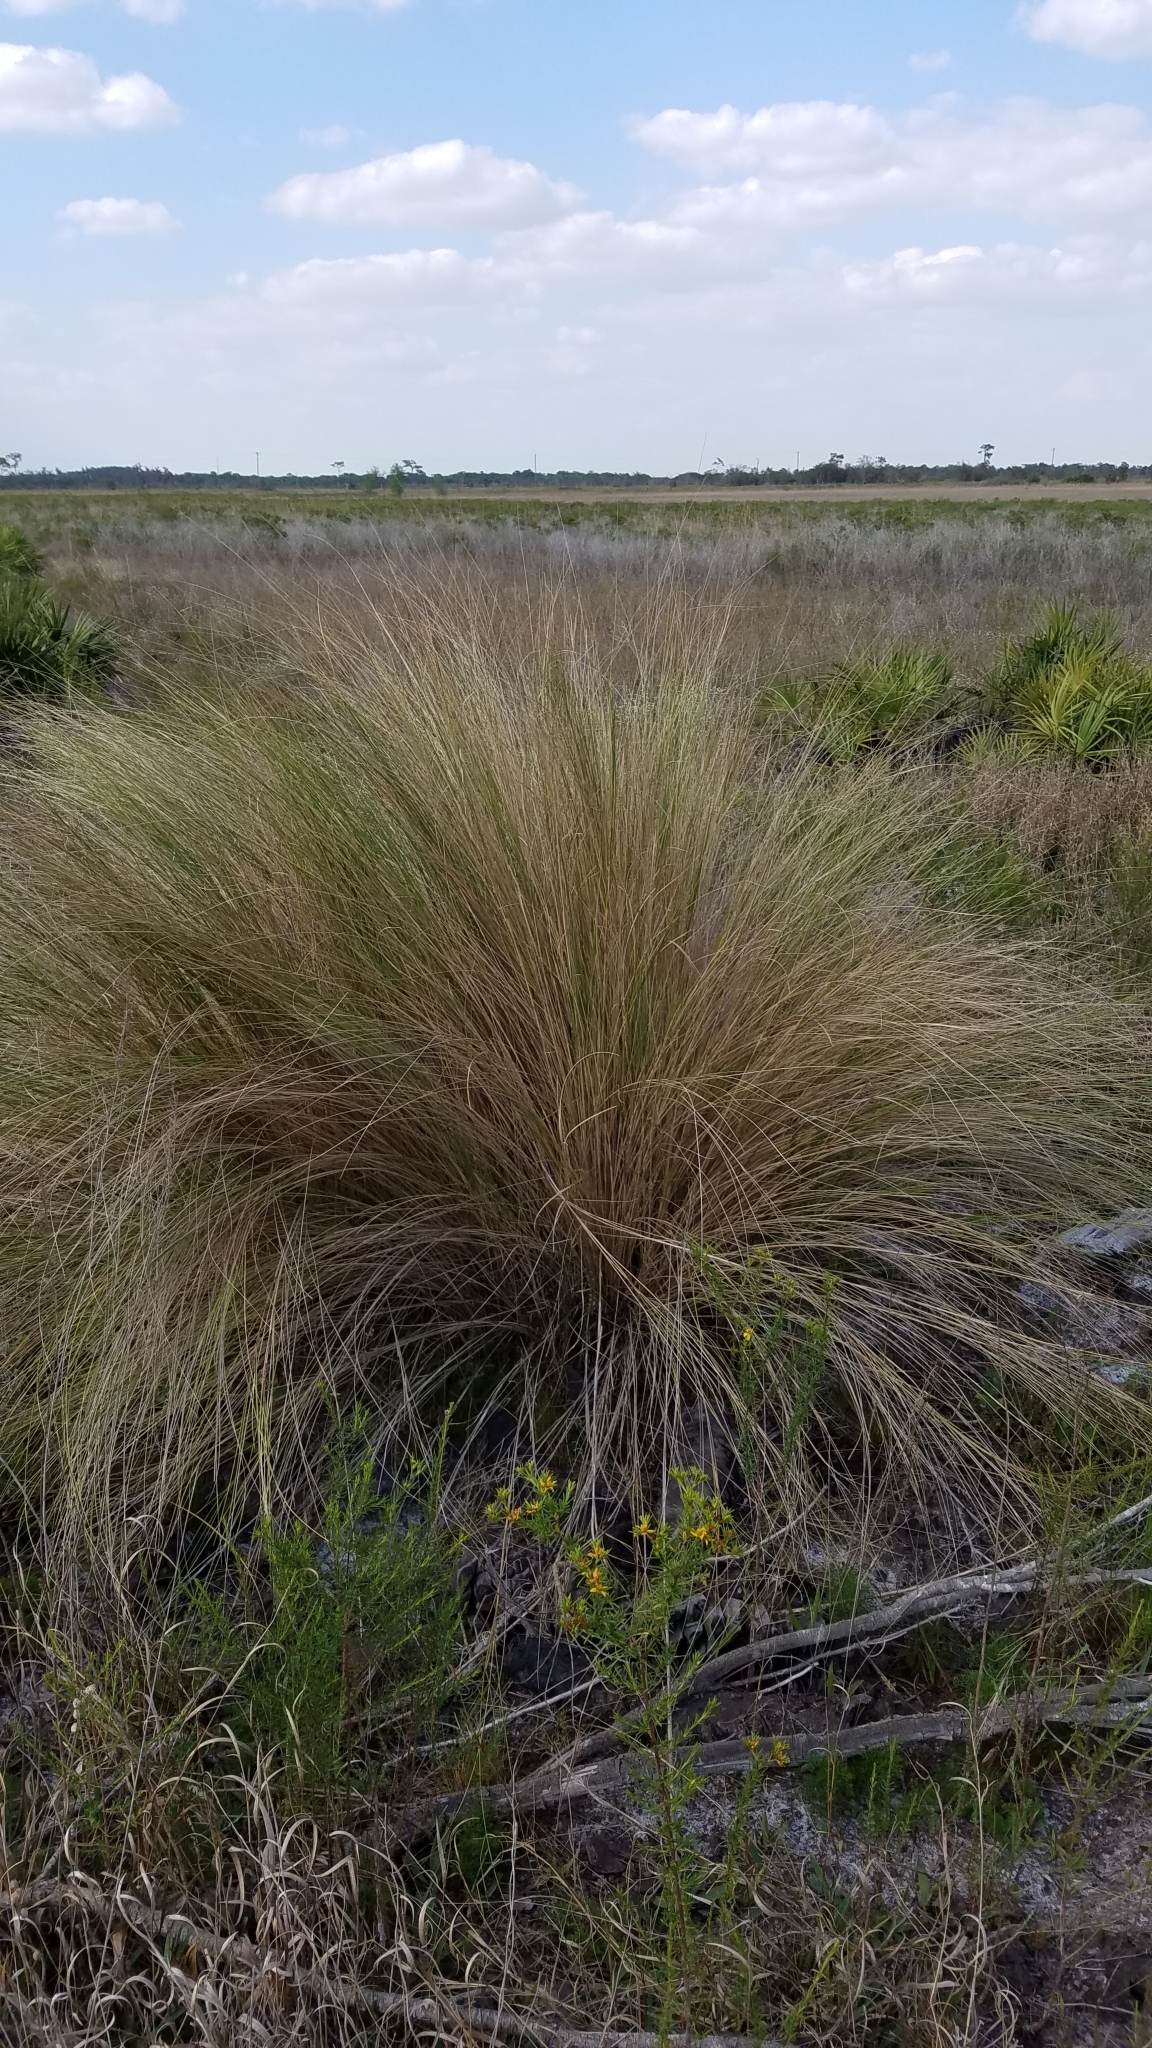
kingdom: Plantae
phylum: Tracheophyta
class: Liliopsida
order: Poales
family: Poaceae
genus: Sporobolus
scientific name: Sporobolus bakeri
